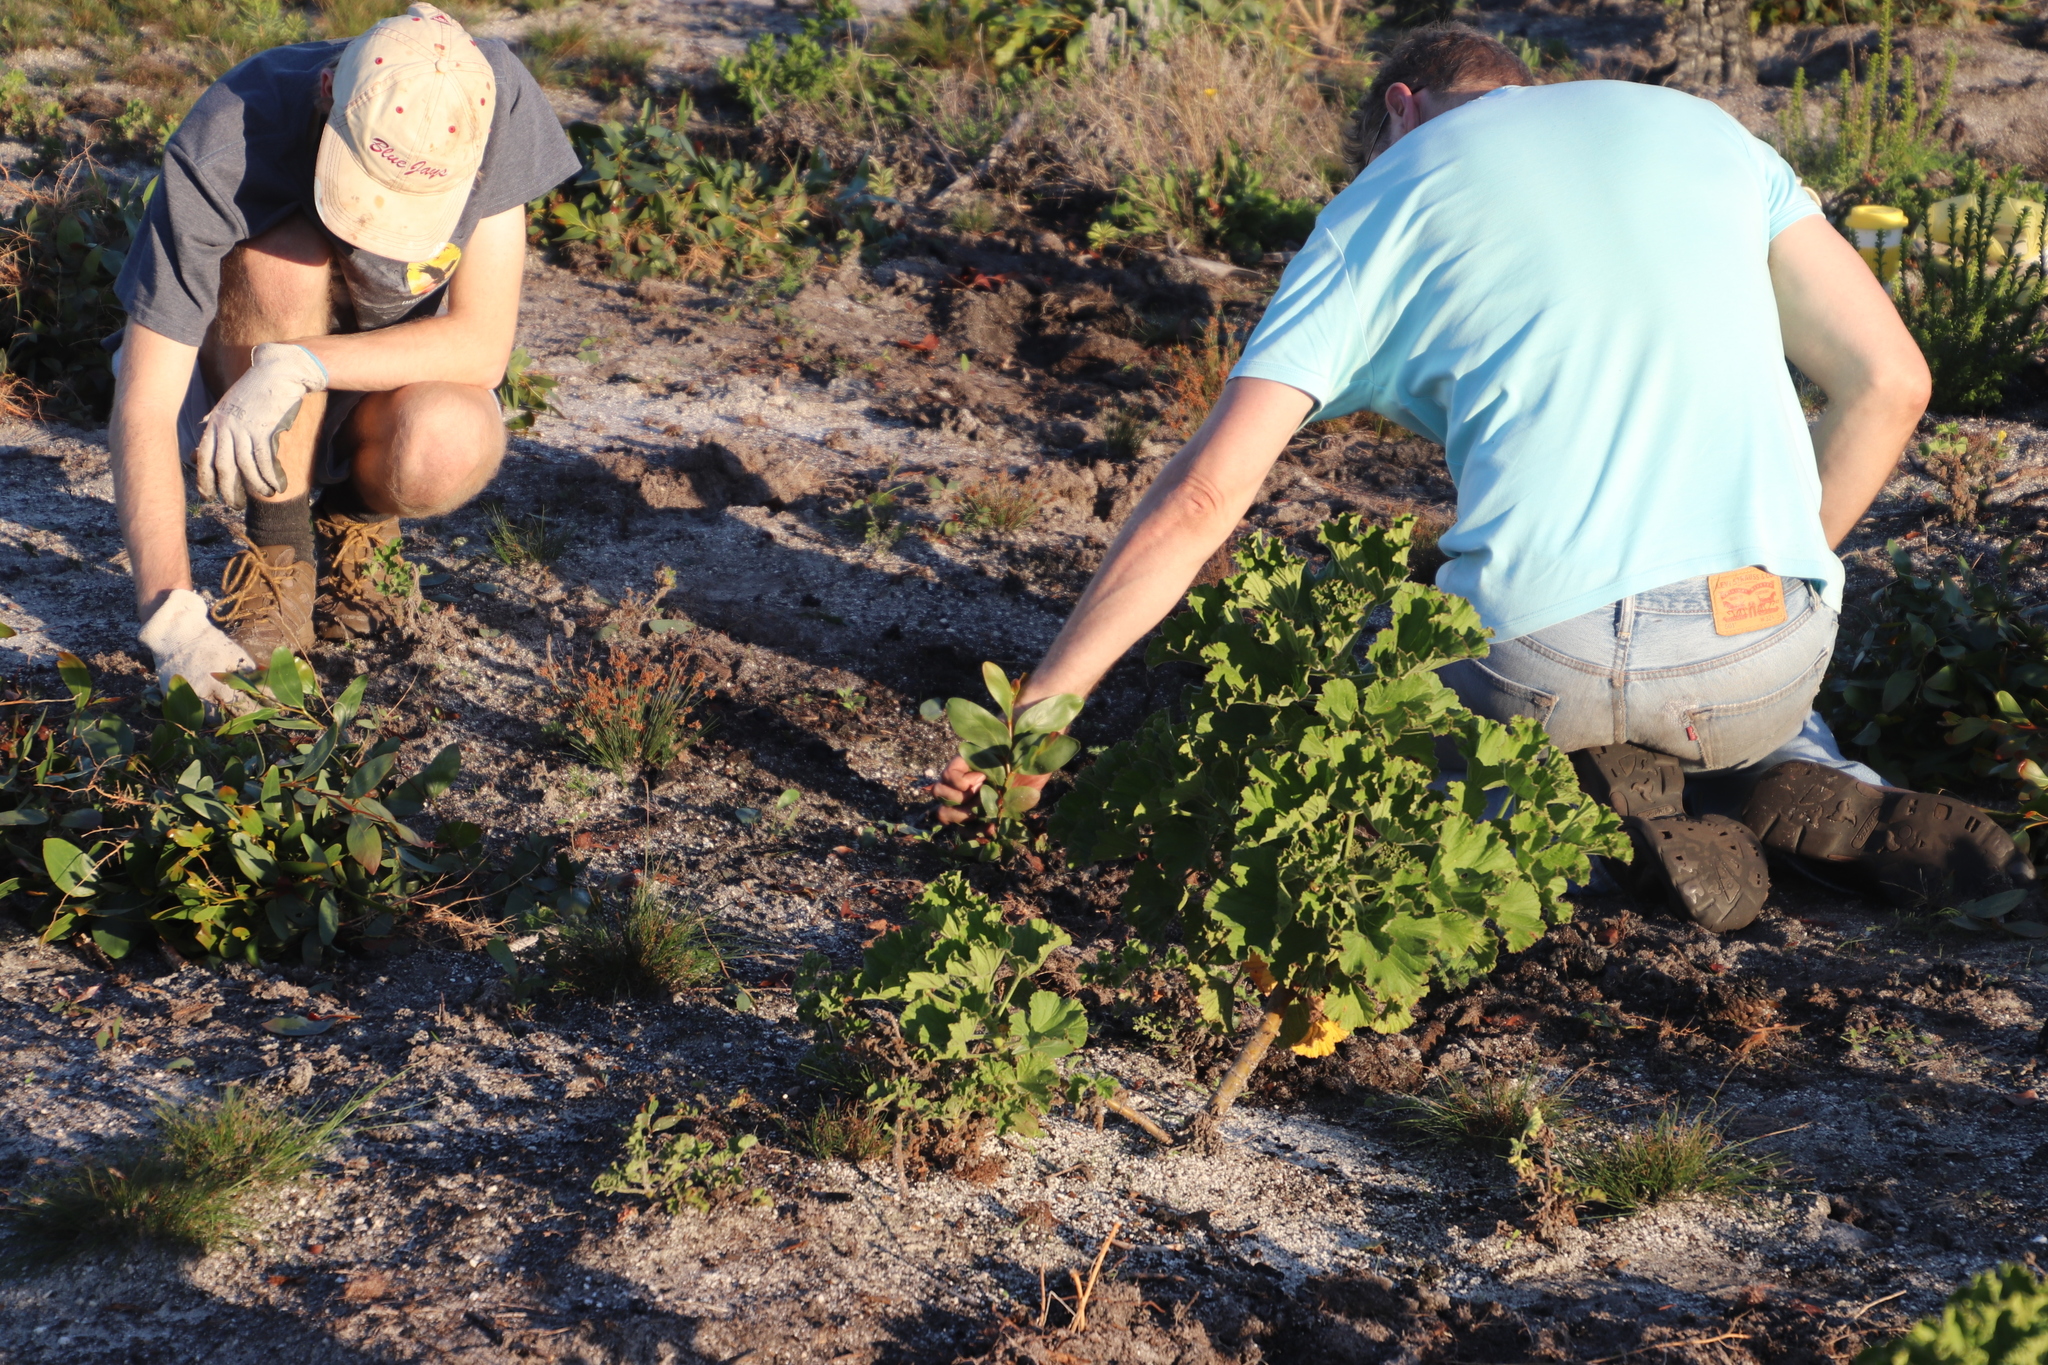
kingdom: Plantae
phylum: Tracheophyta
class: Magnoliopsida
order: Fabales
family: Fabaceae
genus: Acacia
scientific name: Acacia pycnantha
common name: Golden wattle
